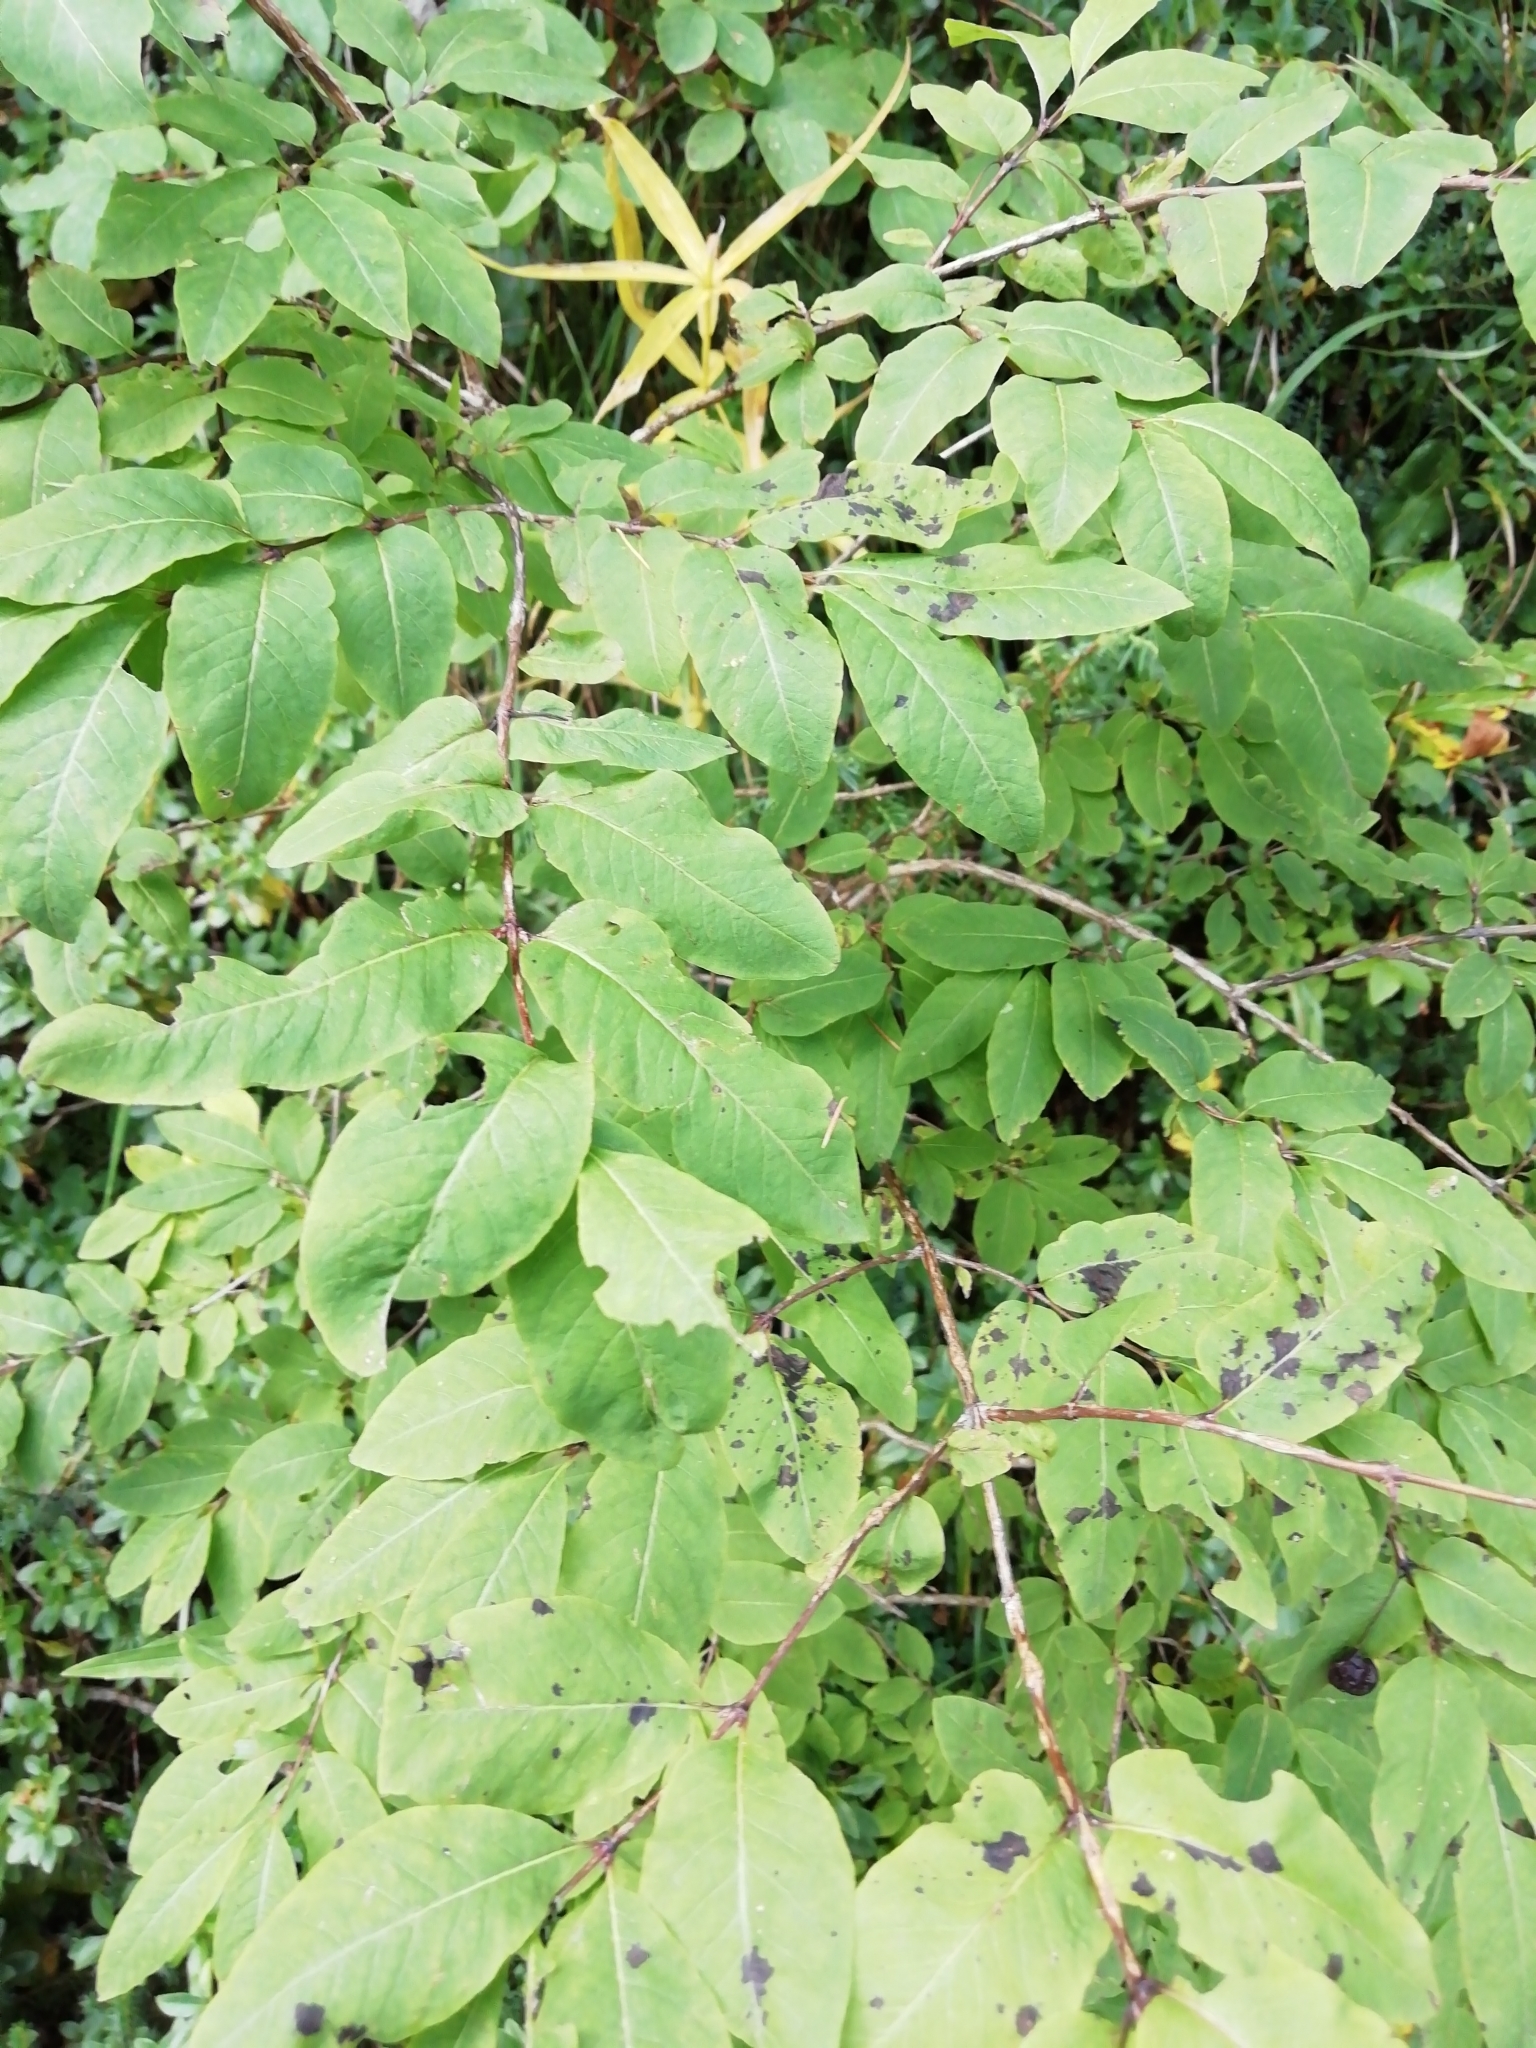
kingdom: Plantae
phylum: Tracheophyta
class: Magnoliopsida
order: Dipsacales
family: Caprifoliaceae
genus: Lonicera
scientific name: Lonicera nigra
